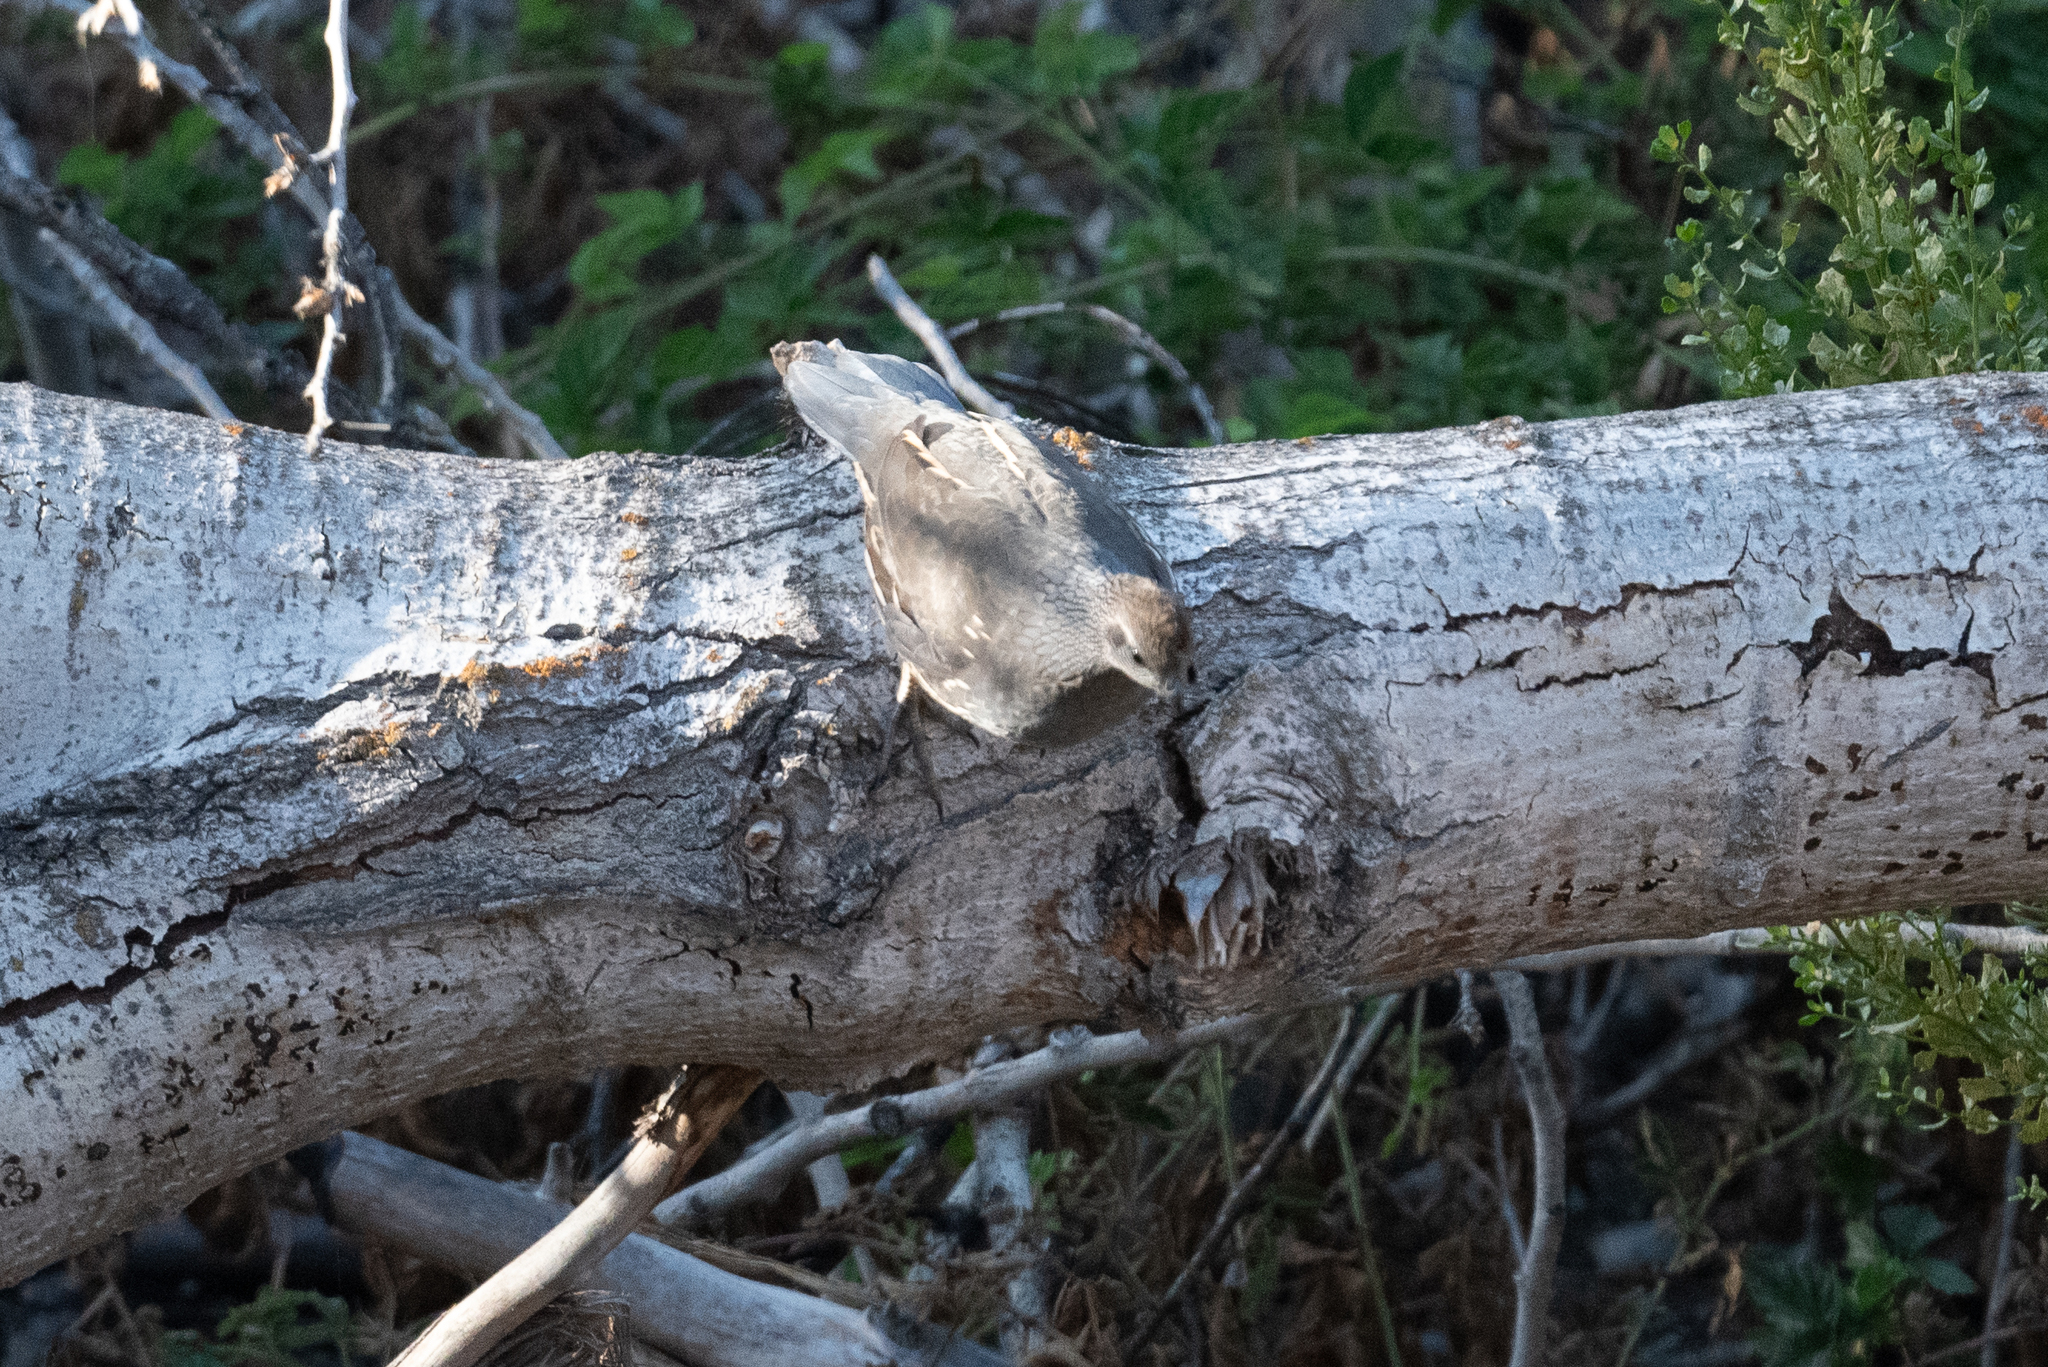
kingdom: Animalia
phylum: Chordata
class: Aves
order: Galliformes
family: Odontophoridae
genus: Callipepla
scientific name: Callipepla californica
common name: California quail
